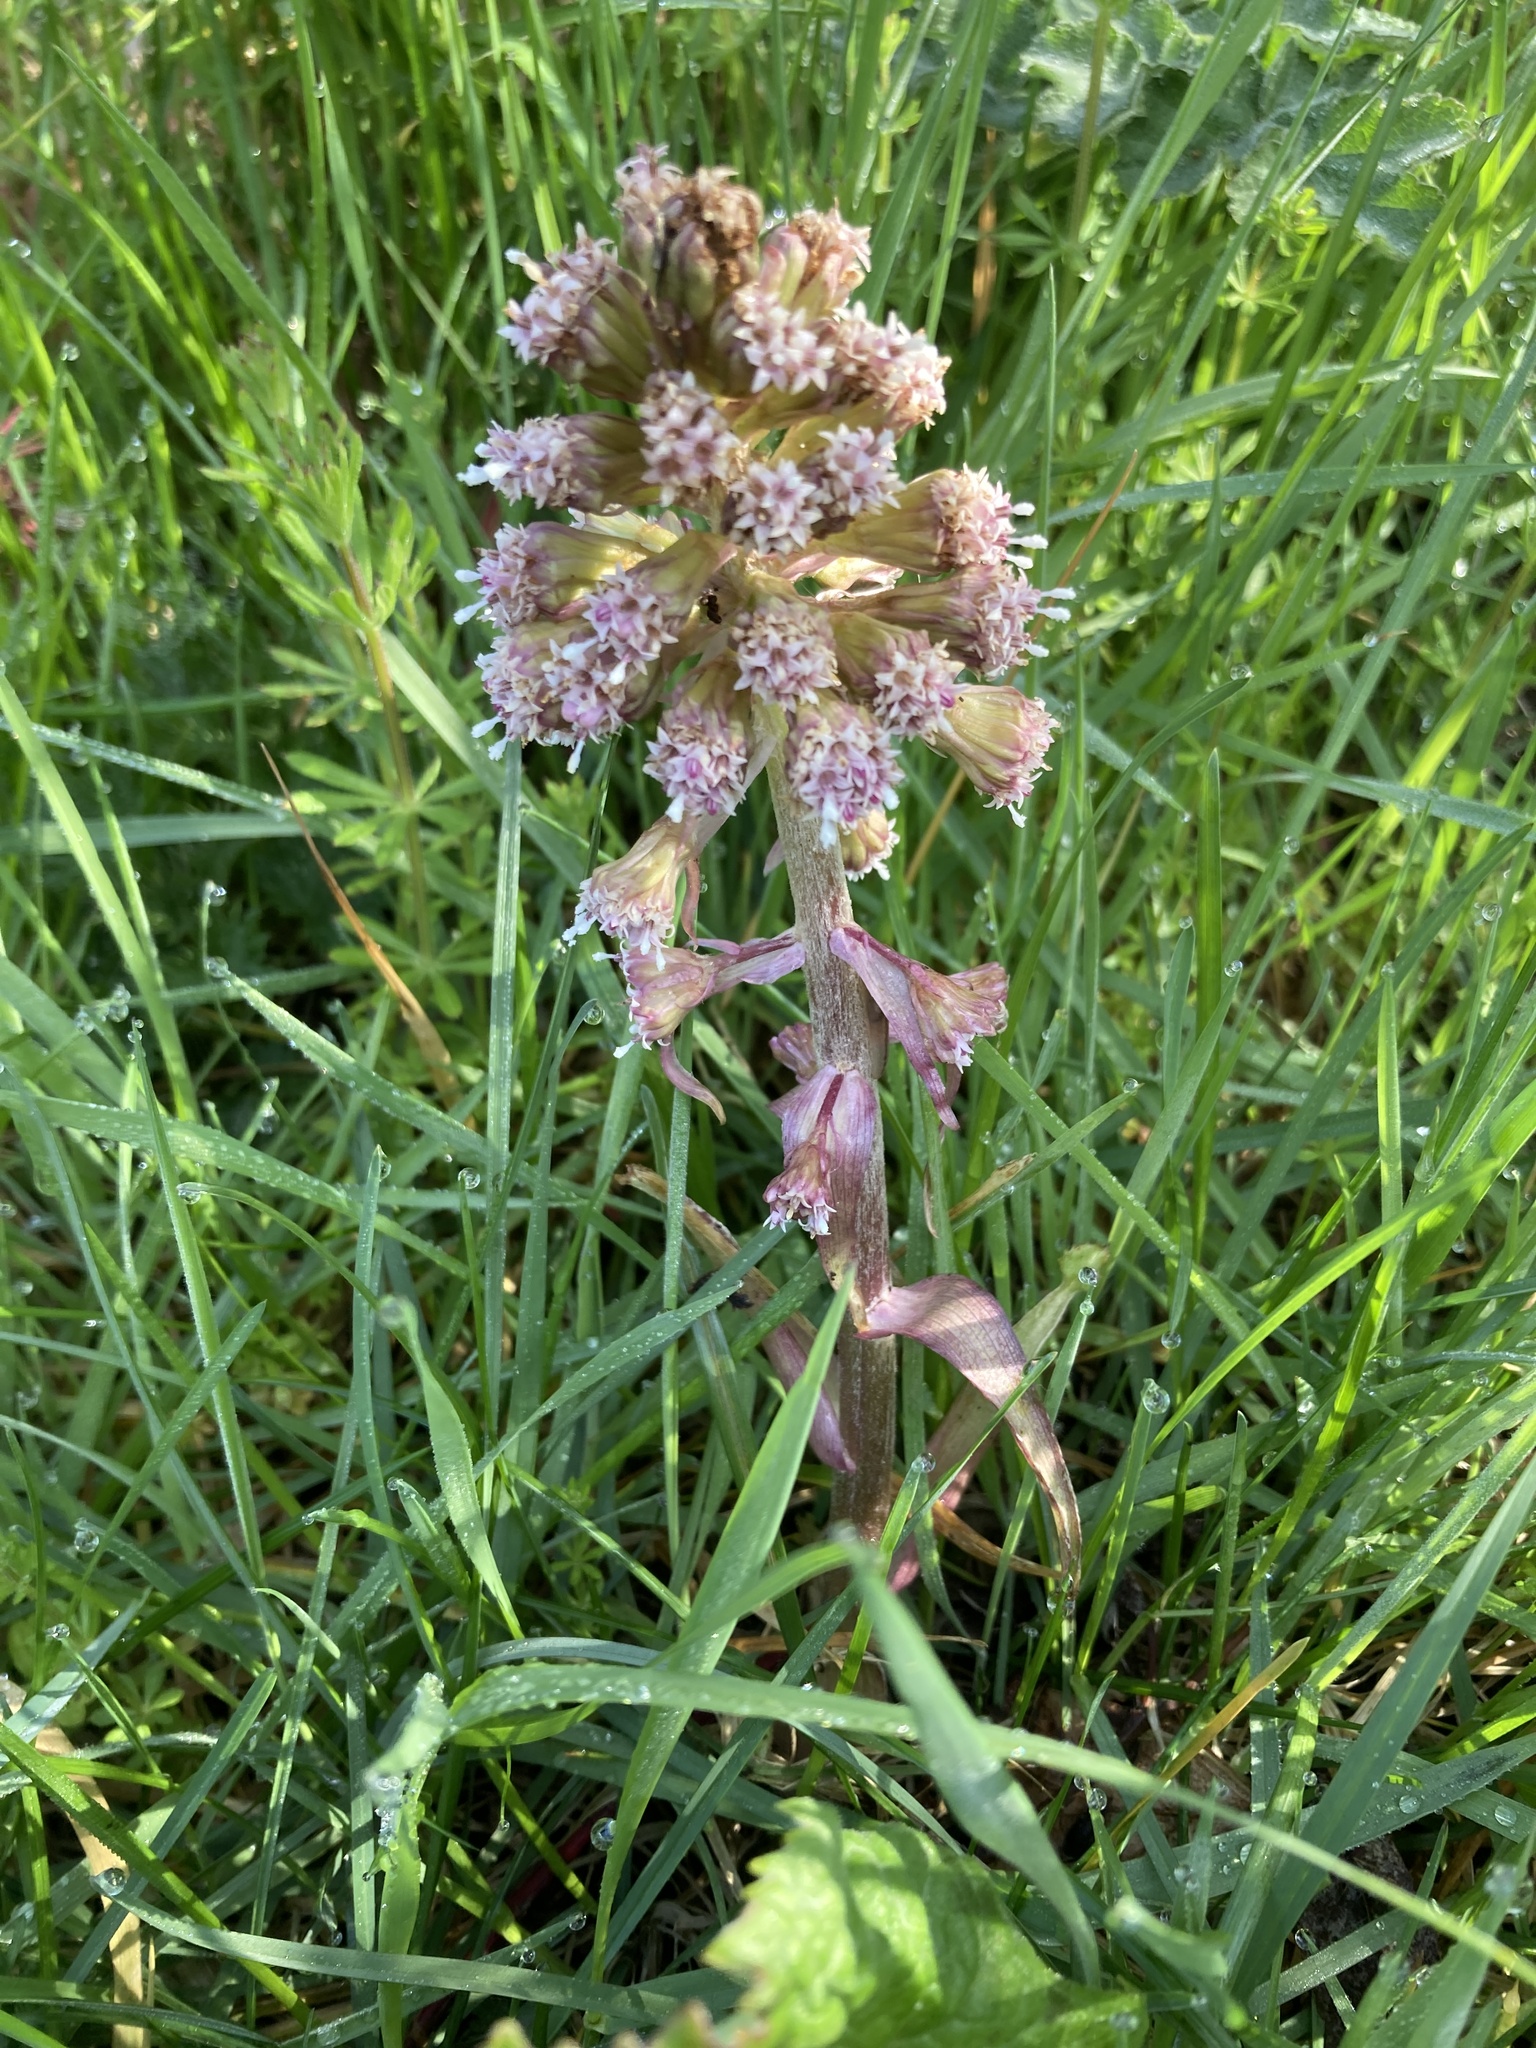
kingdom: Plantae
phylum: Tracheophyta
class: Magnoliopsida
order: Asterales
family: Asteraceae
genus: Petasites
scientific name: Petasites hybridus
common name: Butterbur
